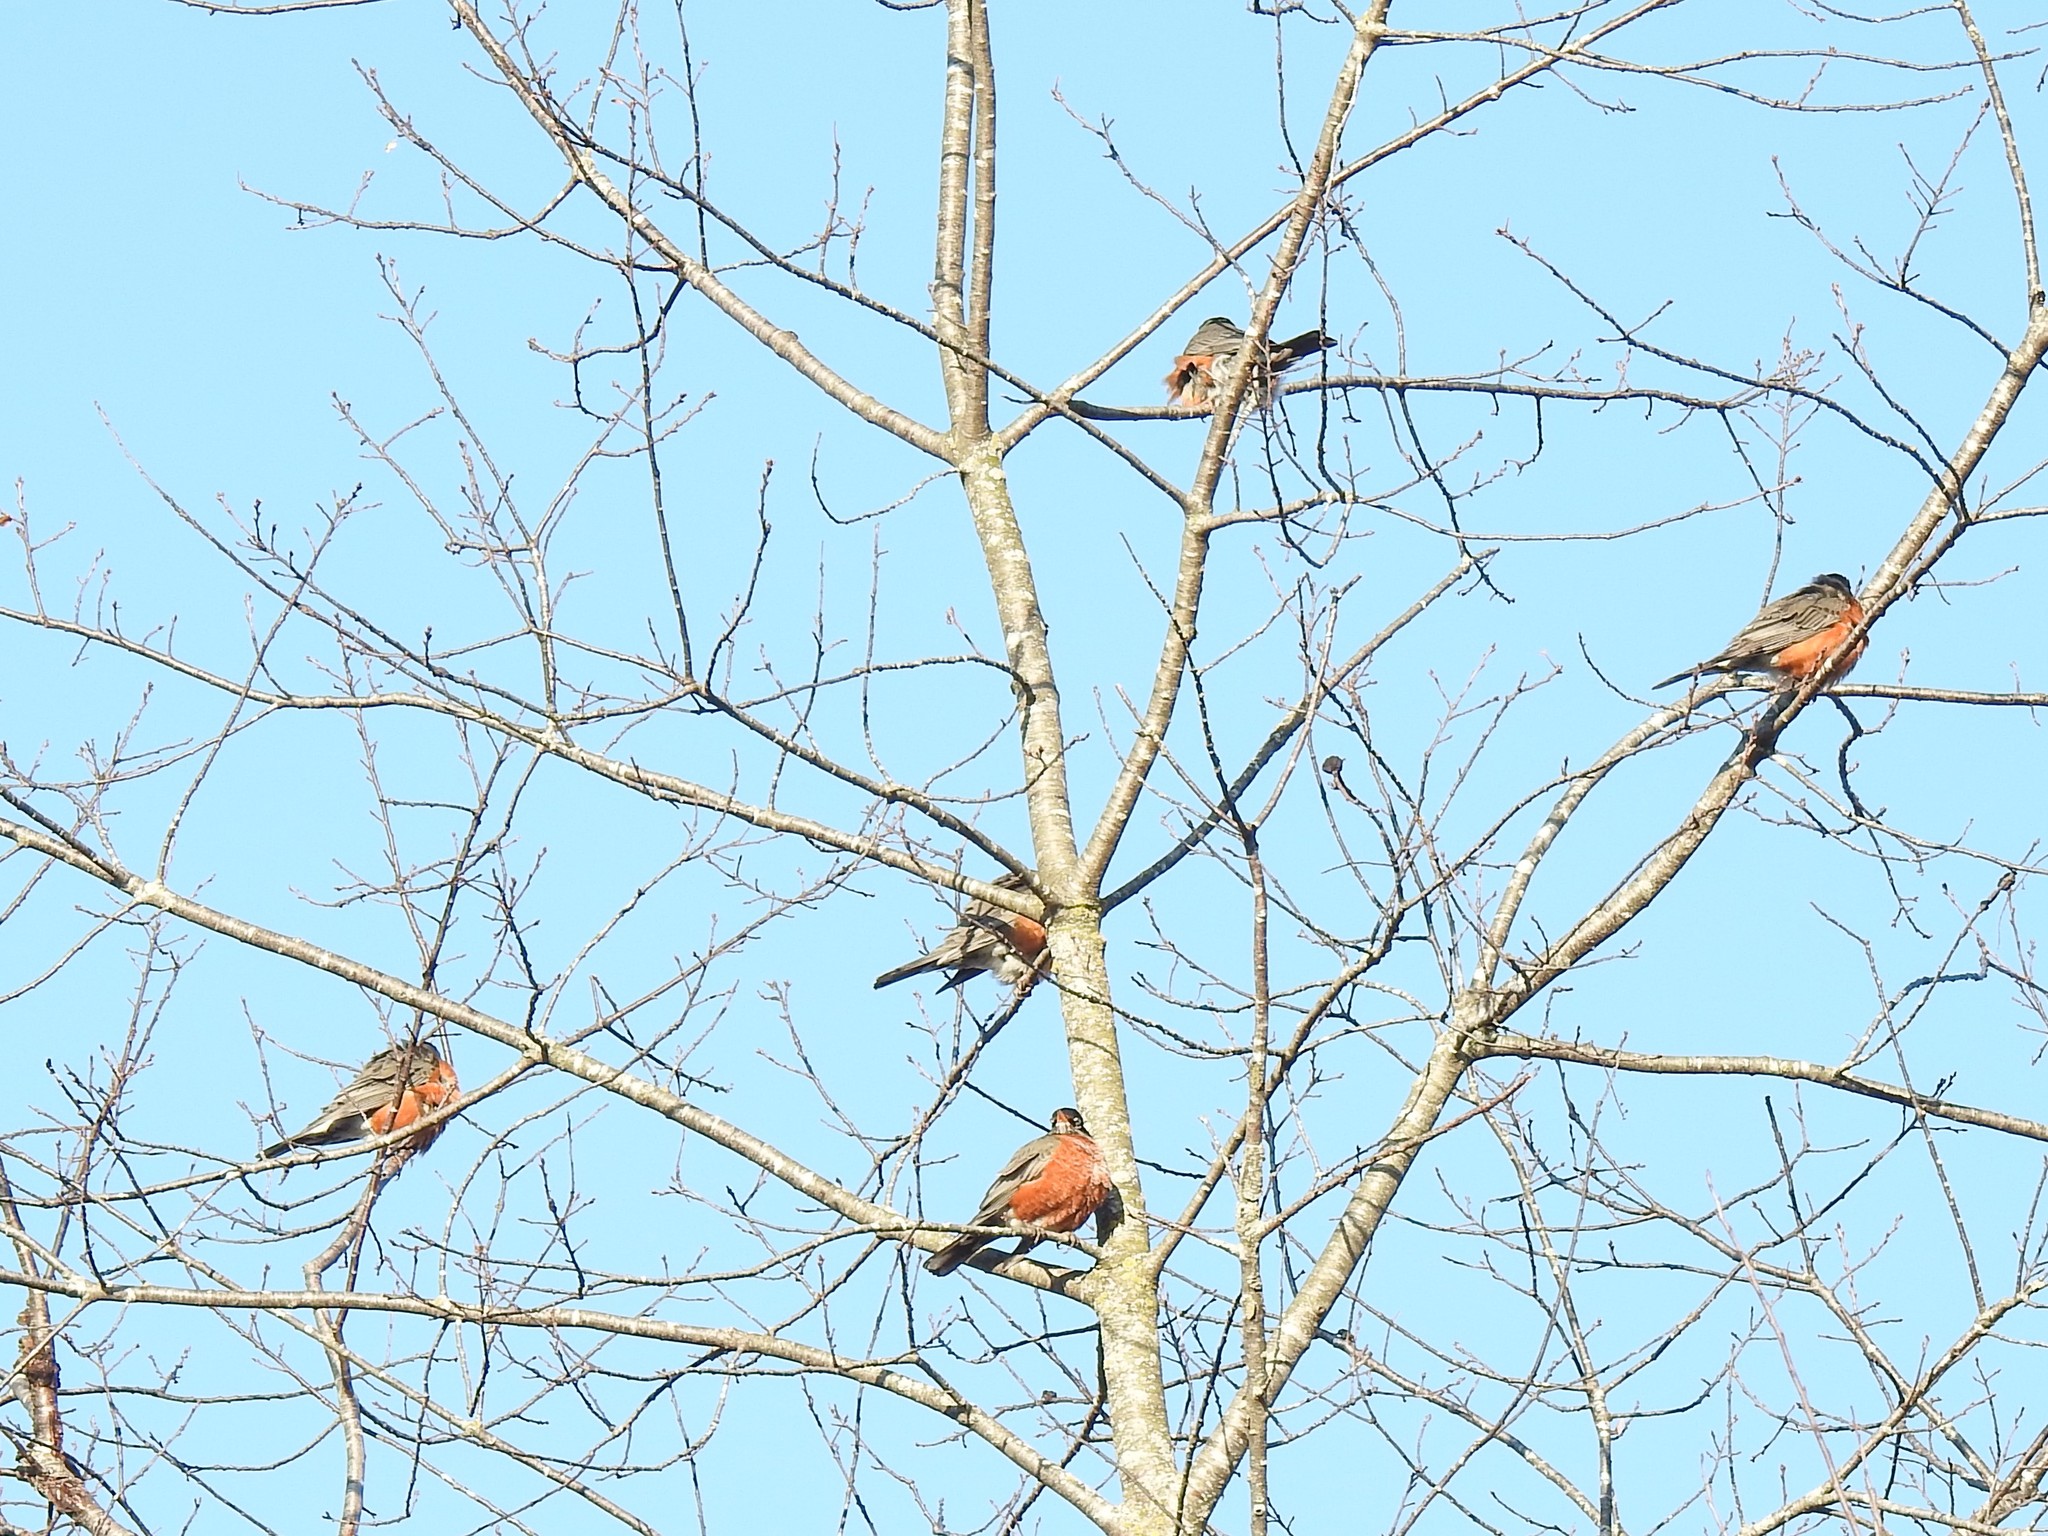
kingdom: Animalia
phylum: Chordata
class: Aves
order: Passeriformes
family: Turdidae
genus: Turdus
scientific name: Turdus migratorius
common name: American robin
